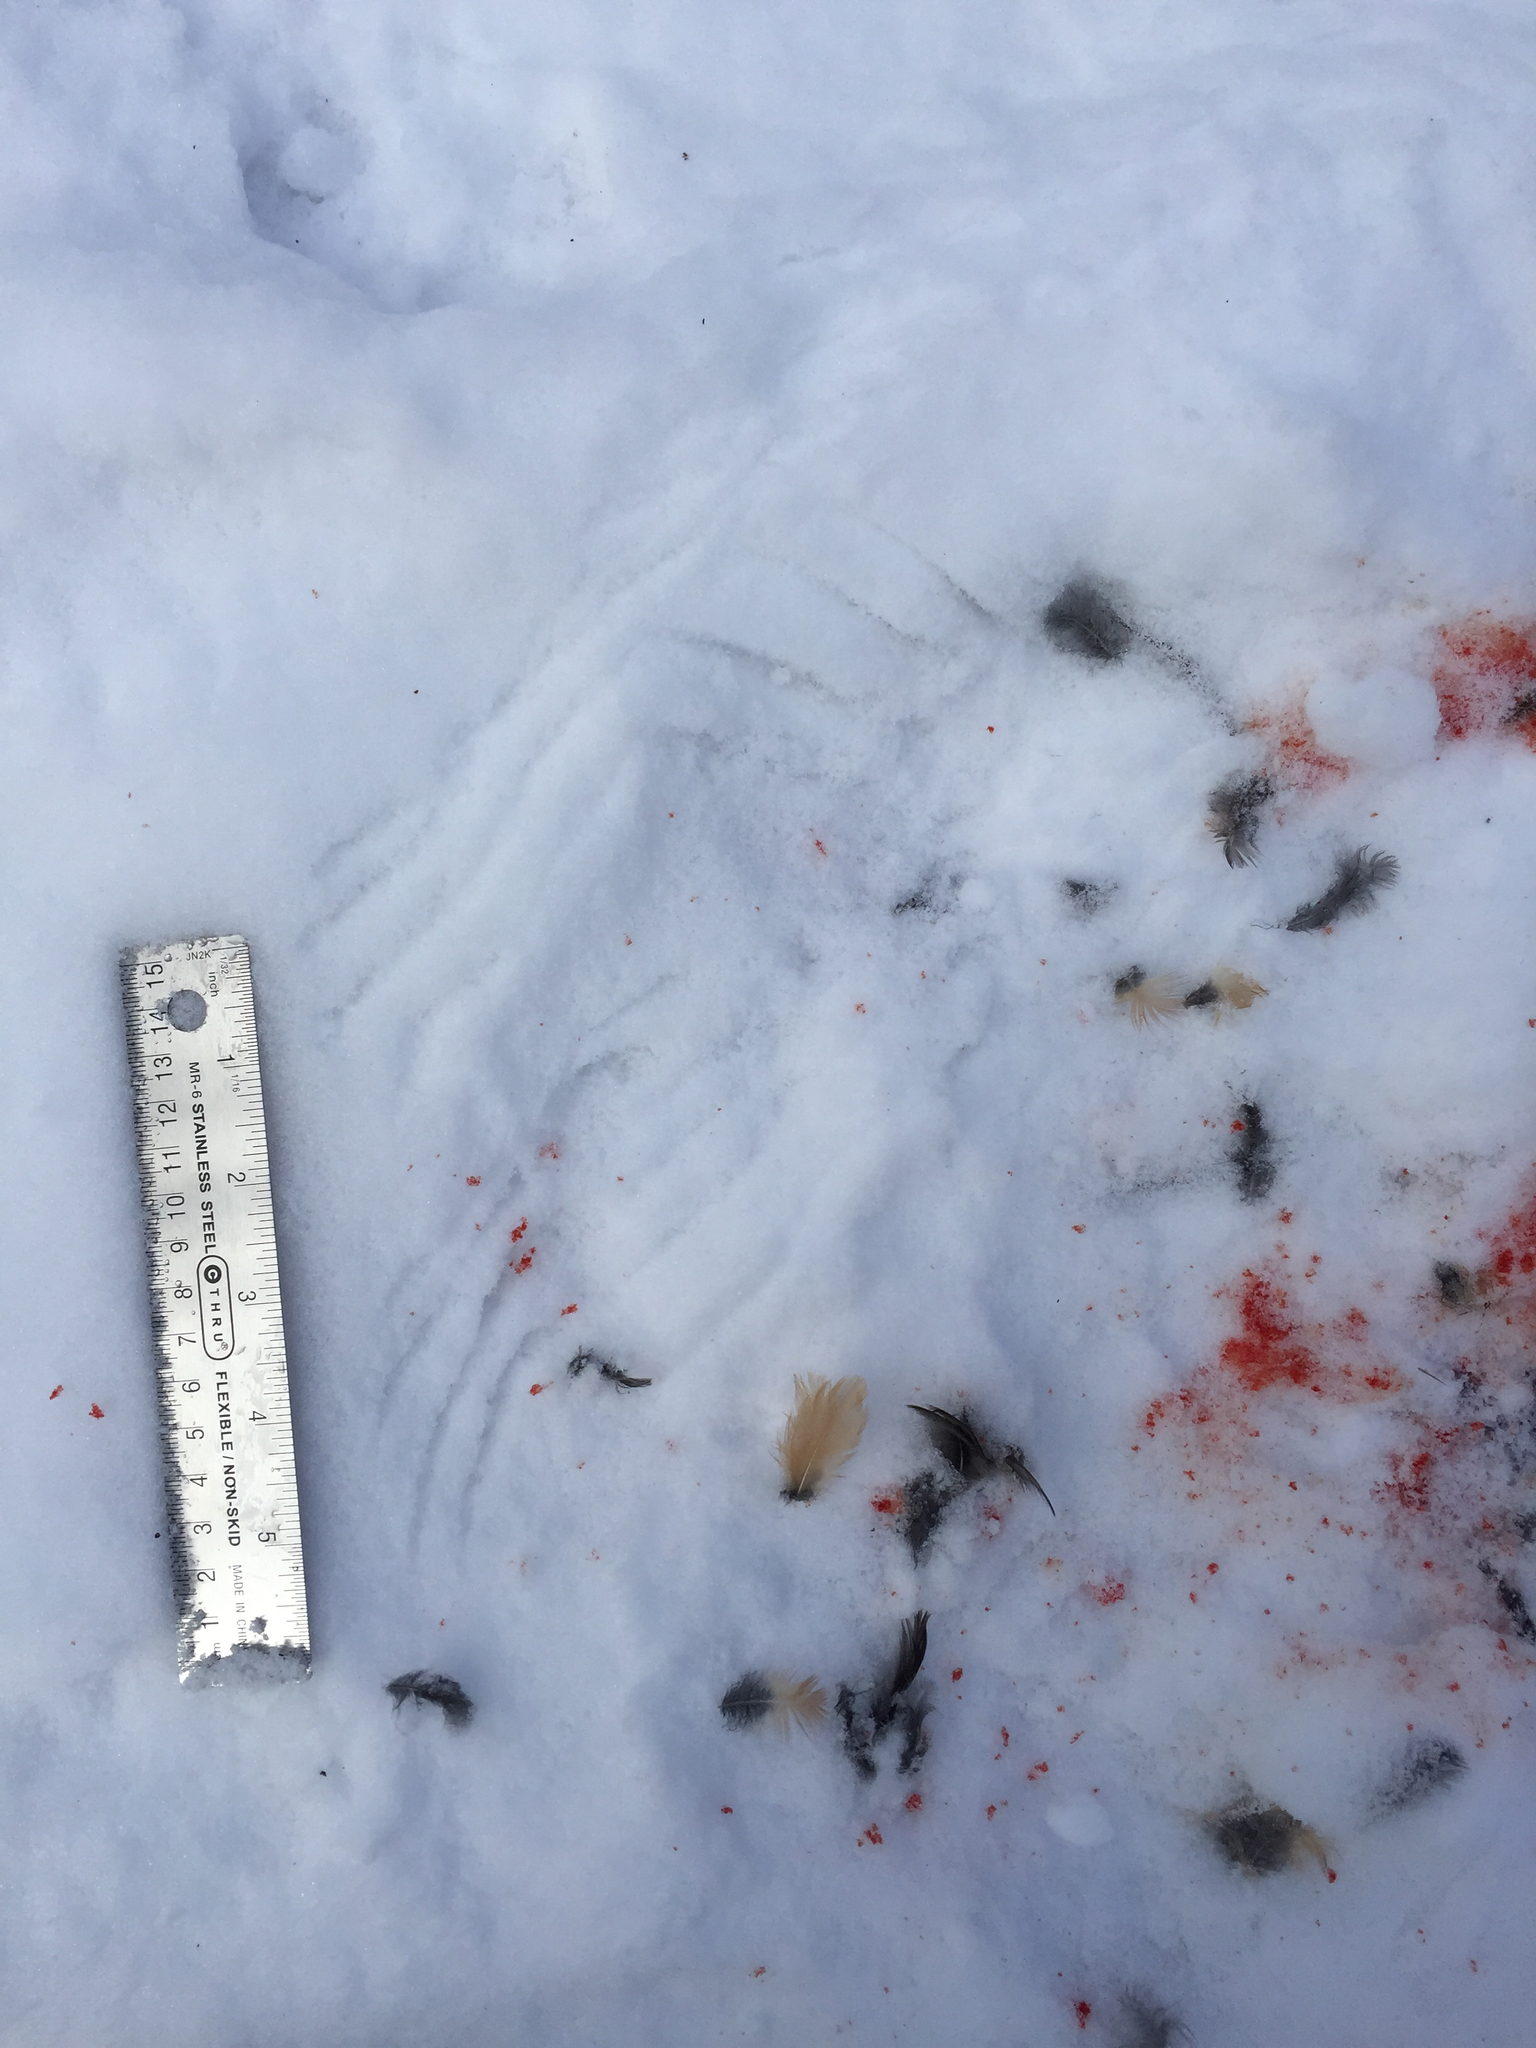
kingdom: Animalia
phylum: Chordata
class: Aves
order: Passeriformes
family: Turdidae
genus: Turdus
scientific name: Turdus migratorius
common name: American robin
